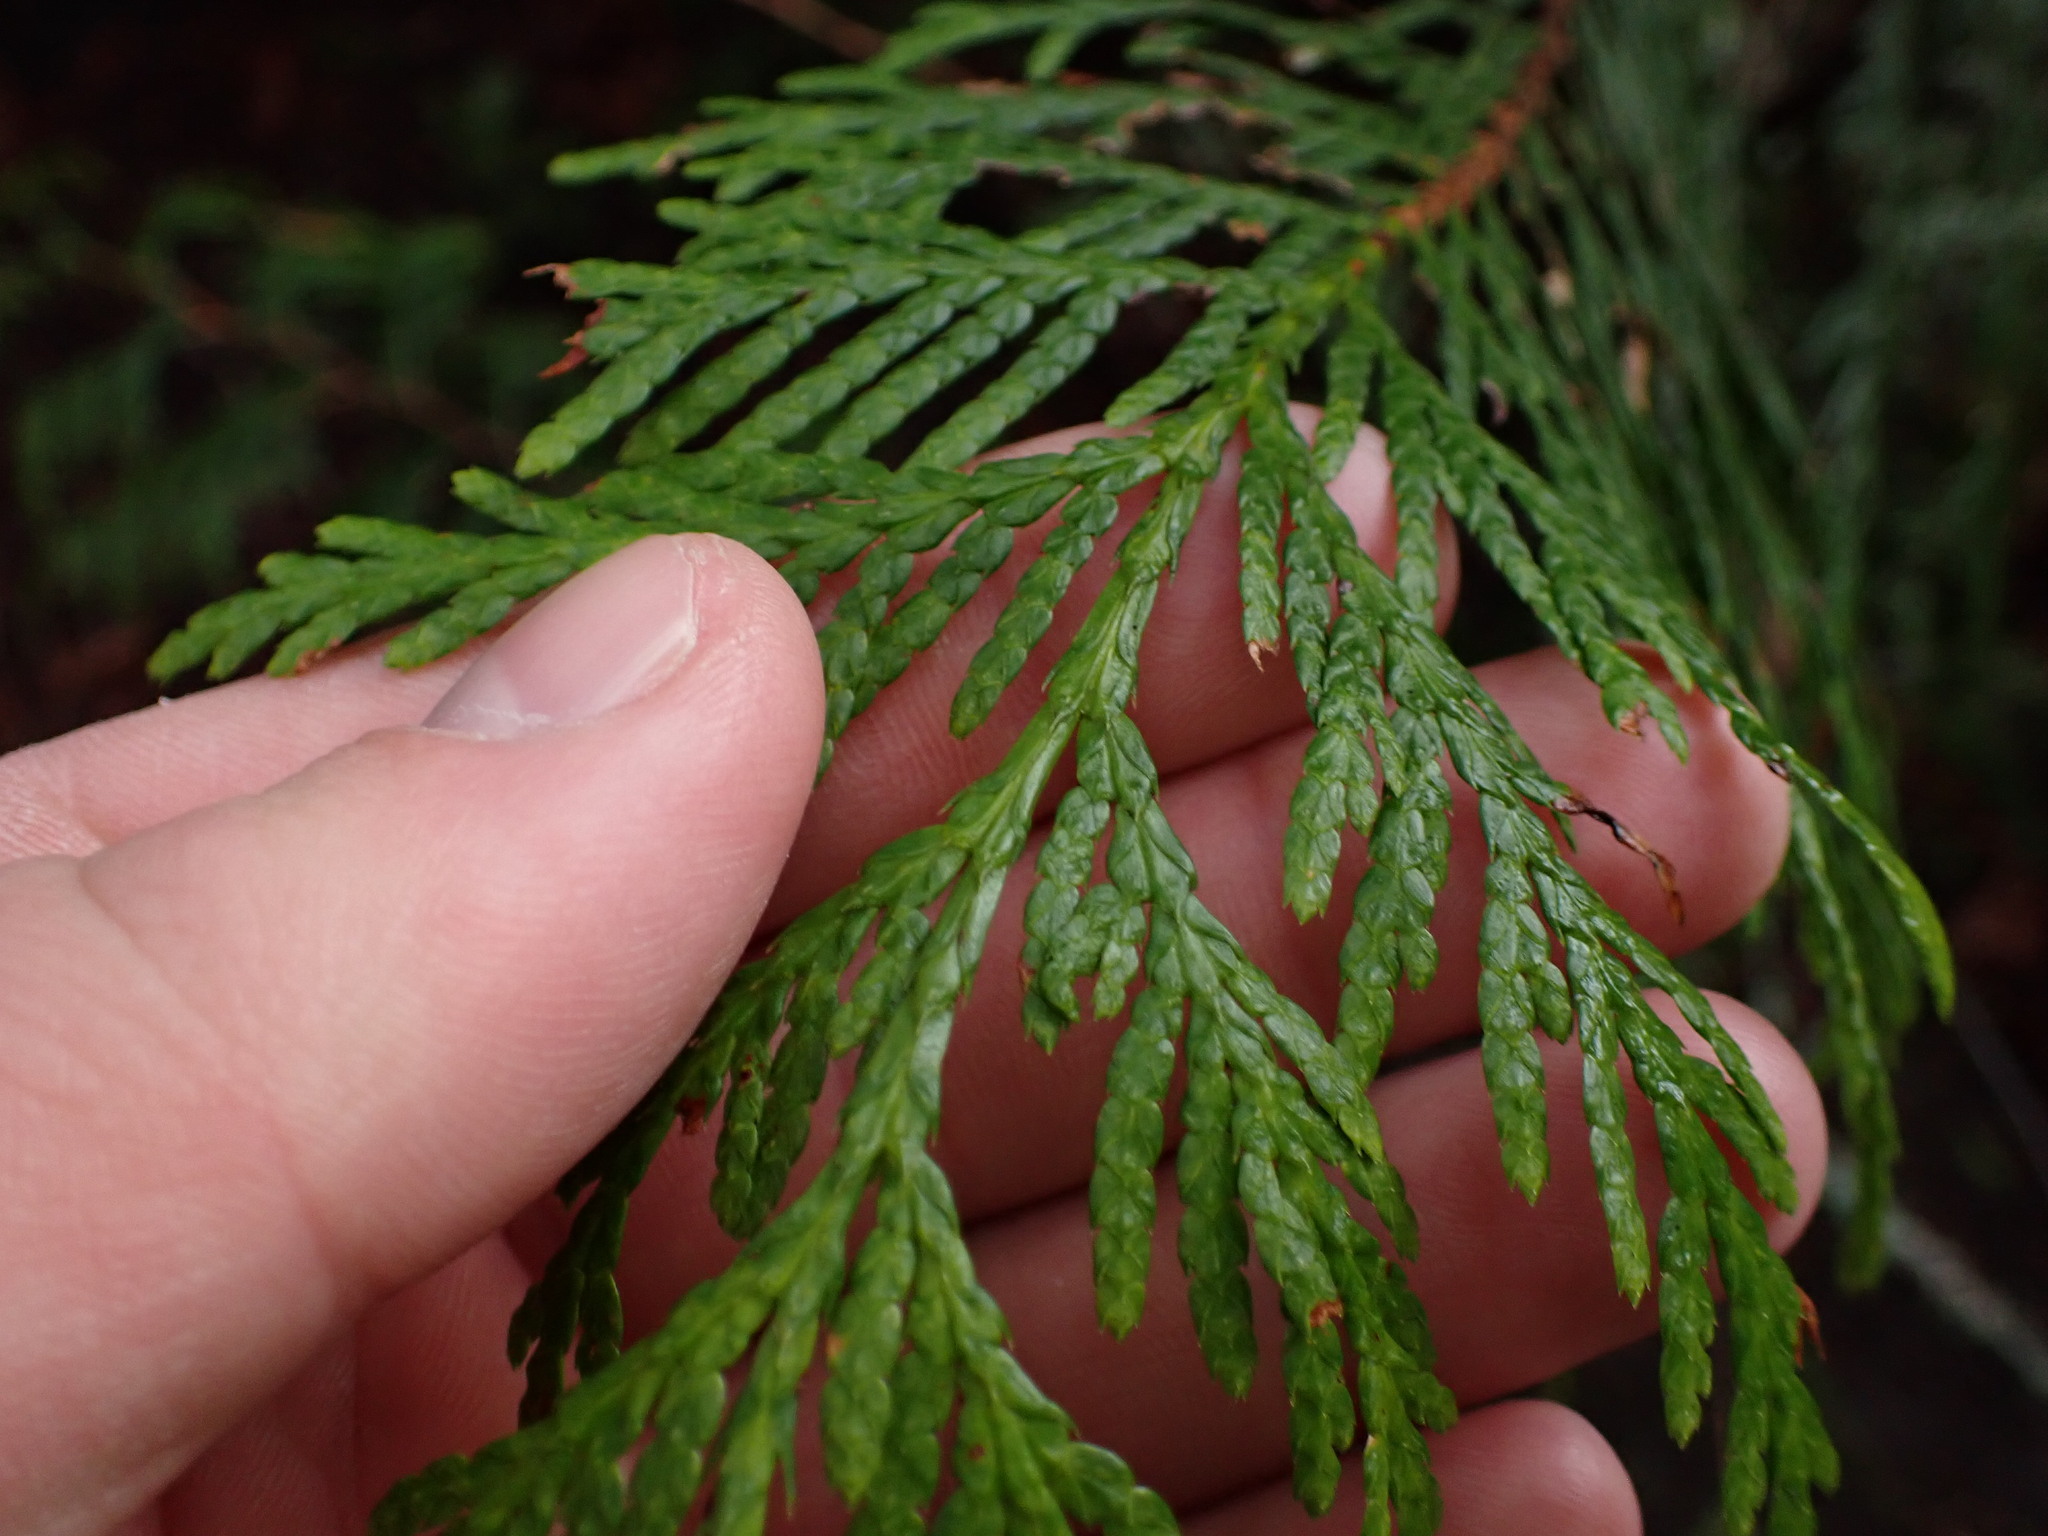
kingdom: Plantae
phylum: Tracheophyta
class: Pinopsida
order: Pinales
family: Cupressaceae
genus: Thuja
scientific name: Thuja plicata
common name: Western red-cedar
